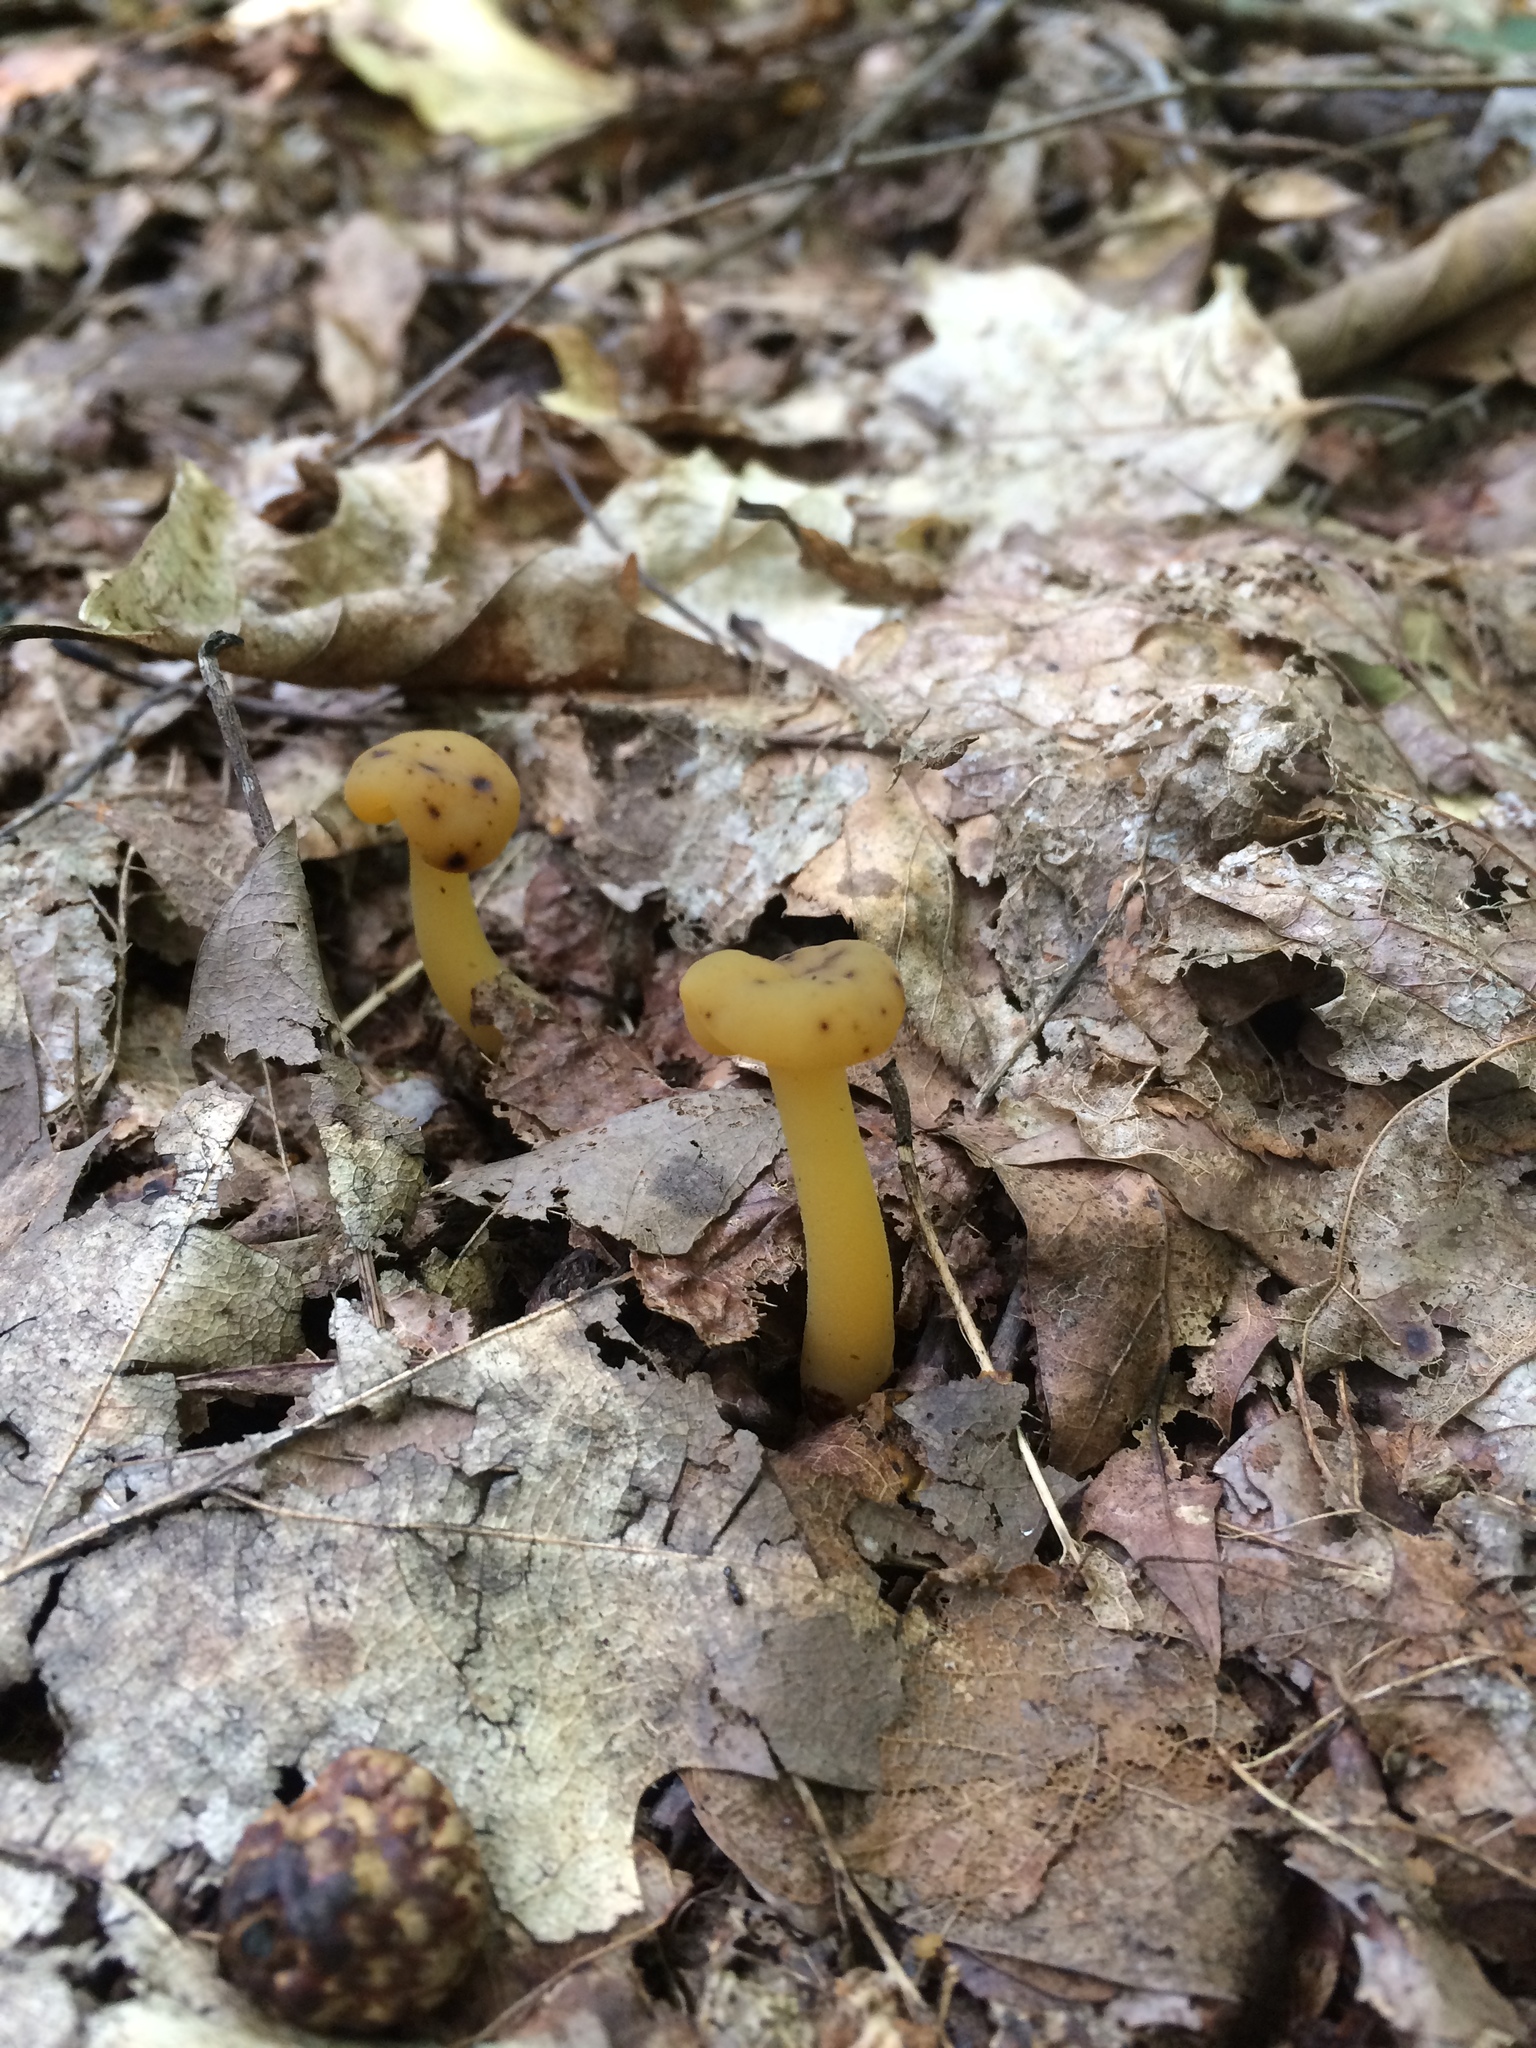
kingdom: Fungi
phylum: Ascomycota
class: Leotiomycetes
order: Leotiales
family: Leotiaceae
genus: Leotia
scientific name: Leotia lubrica
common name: Jellybaby
